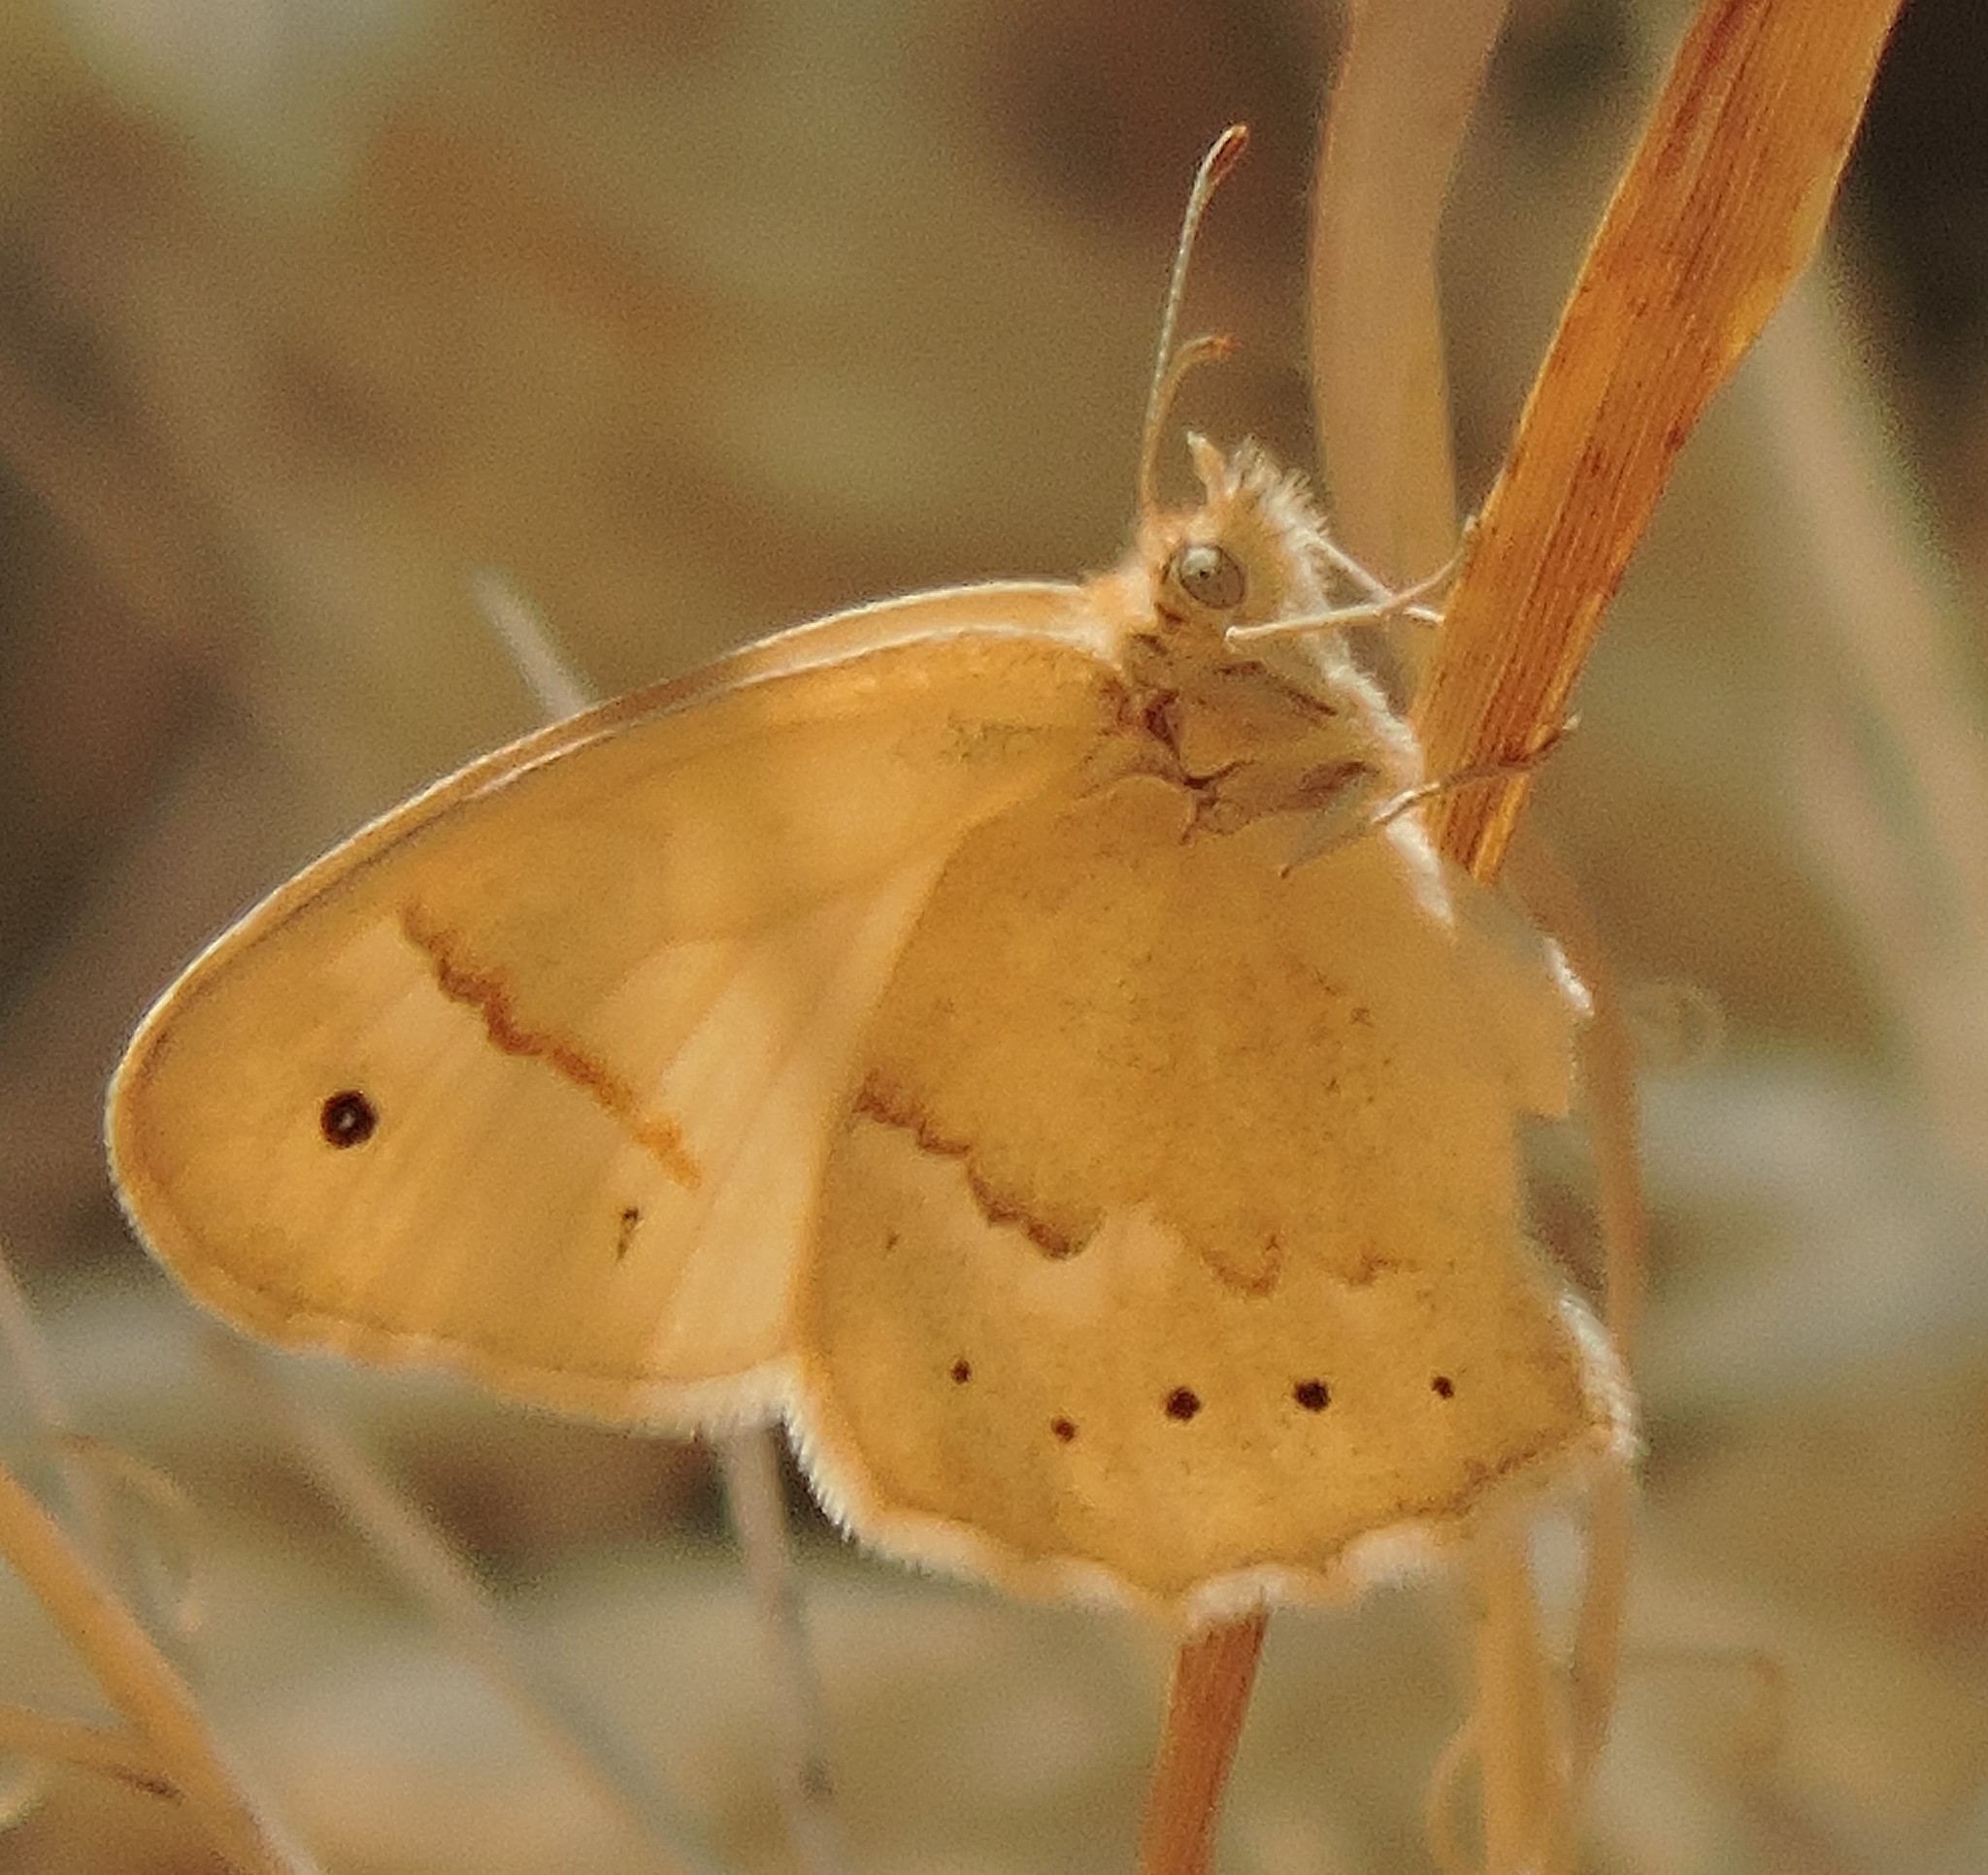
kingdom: Animalia
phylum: Arthropoda
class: Insecta
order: Lepidoptera
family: Nymphalidae
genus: Coenonympha
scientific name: Coenonympha california
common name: Common ringlet
